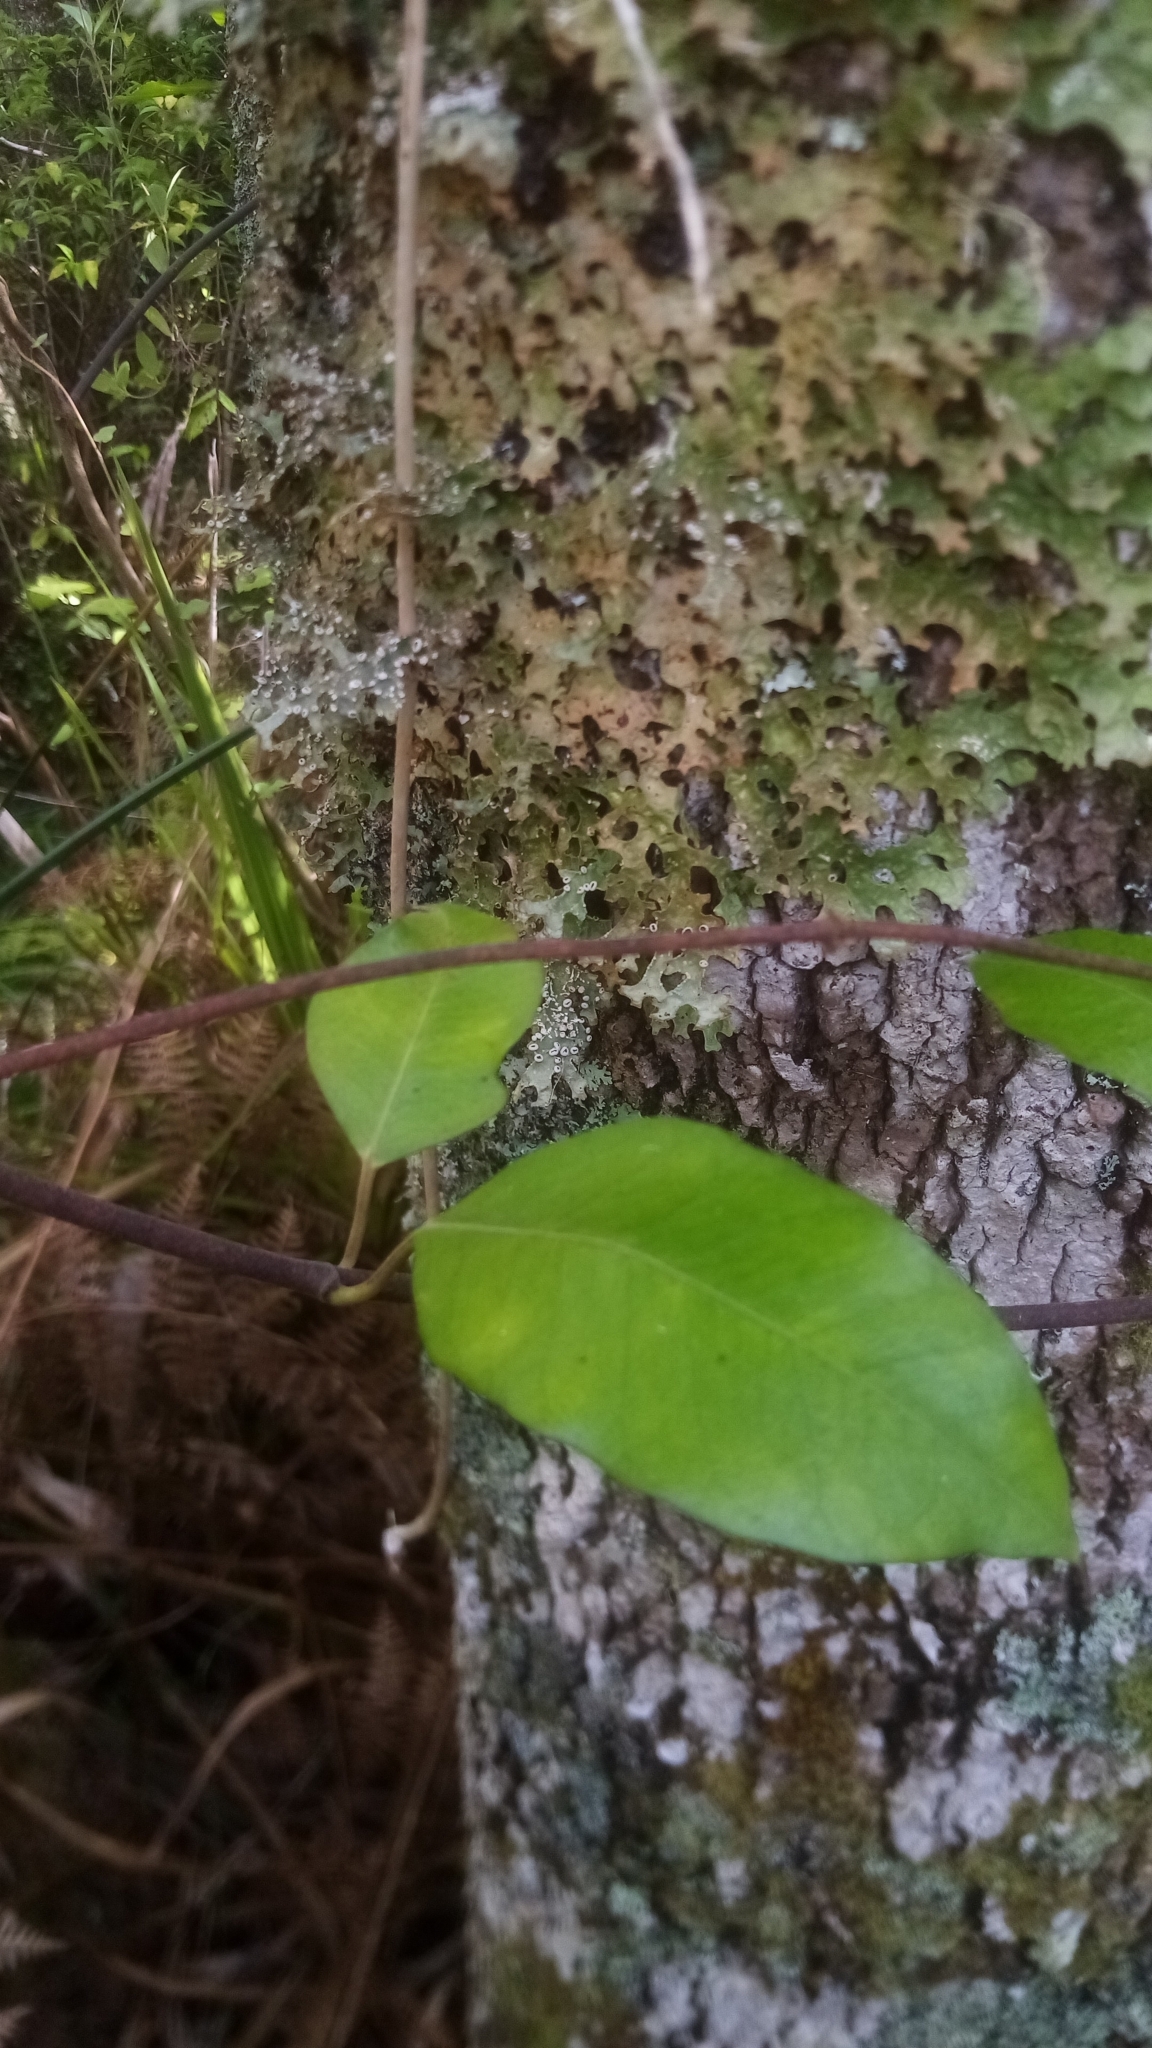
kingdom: Plantae
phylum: Tracheophyta
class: Magnoliopsida
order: Gentianales
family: Apocynaceae
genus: Parsonsia
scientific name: Parsonsia heterophylla
